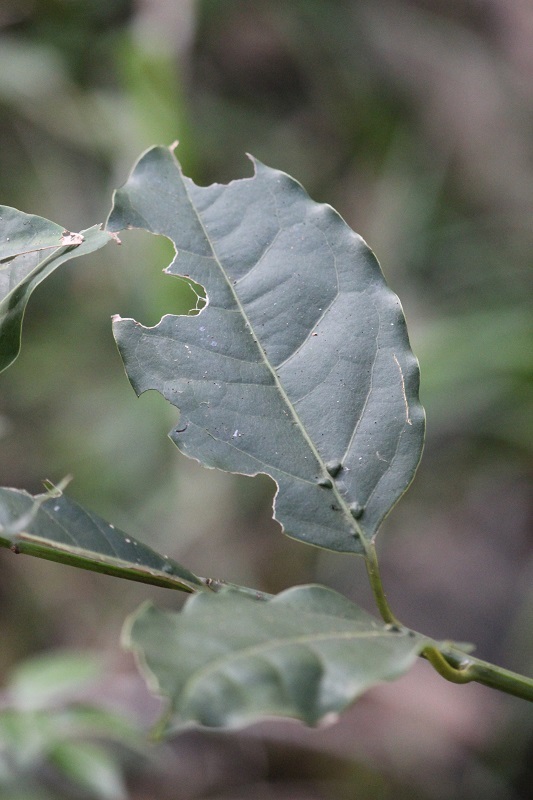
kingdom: Plantae
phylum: Tracheophyta
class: Magnoliopsida
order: Laurales
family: Lauraceae
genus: Ocotea
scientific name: Ocotea bullata
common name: Black stinkwood
